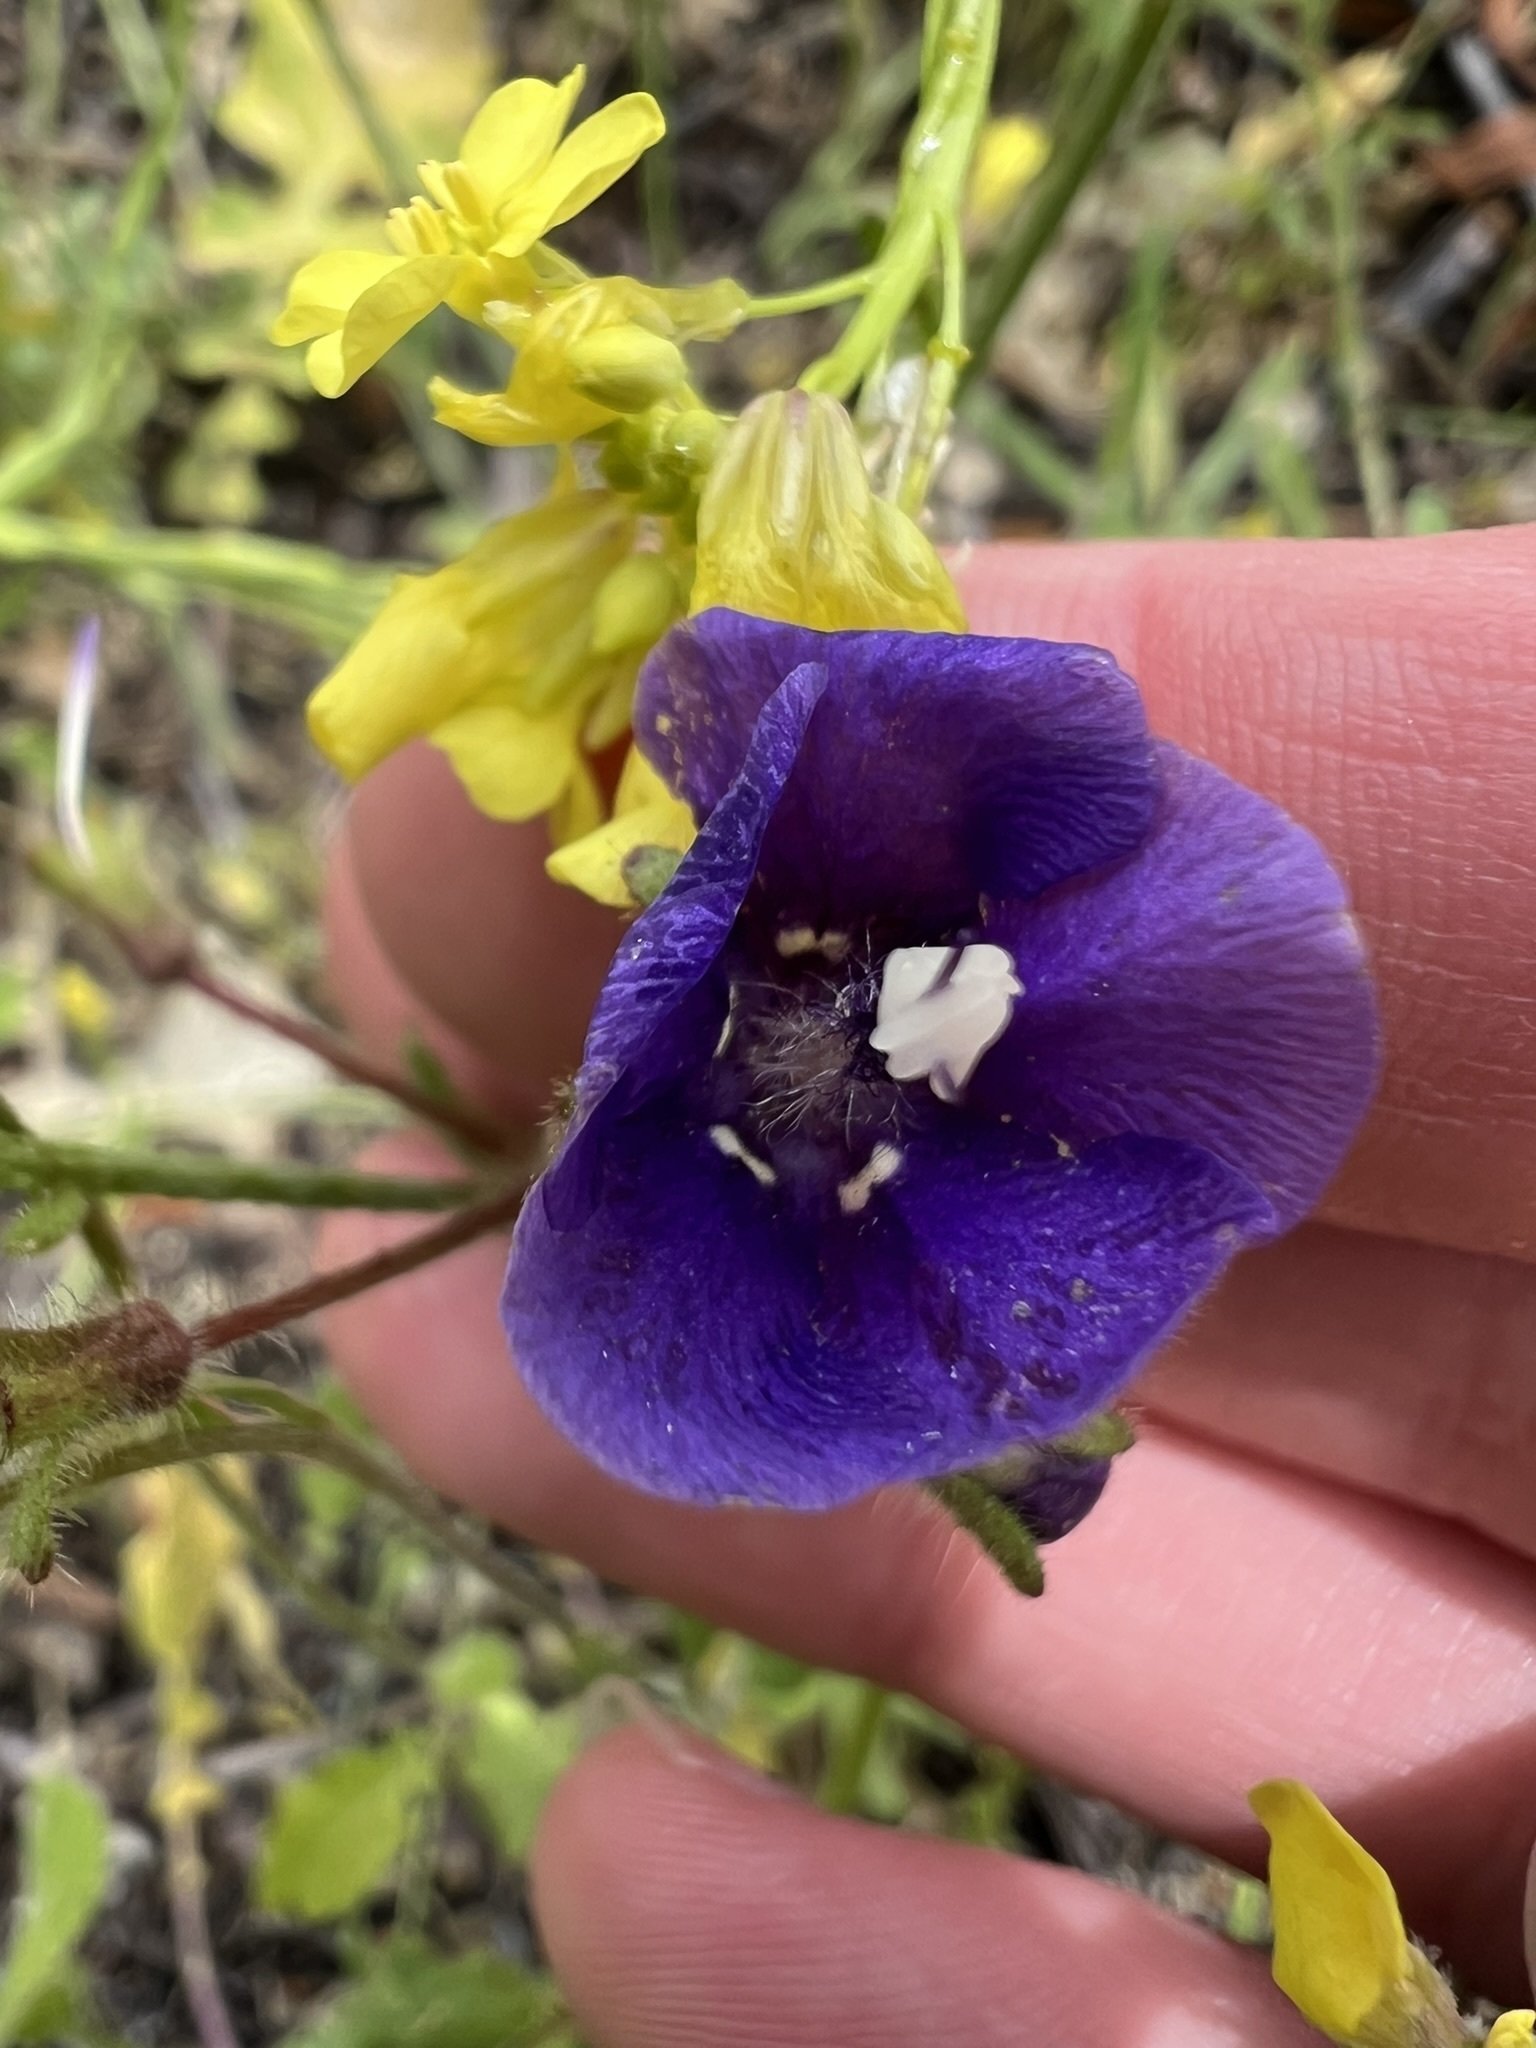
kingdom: Plantae
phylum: Tracheophyta
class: Magnoliopsida
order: Boraginales
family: Hydrophyllaceae
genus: Phacelia
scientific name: Phacelia parryi
